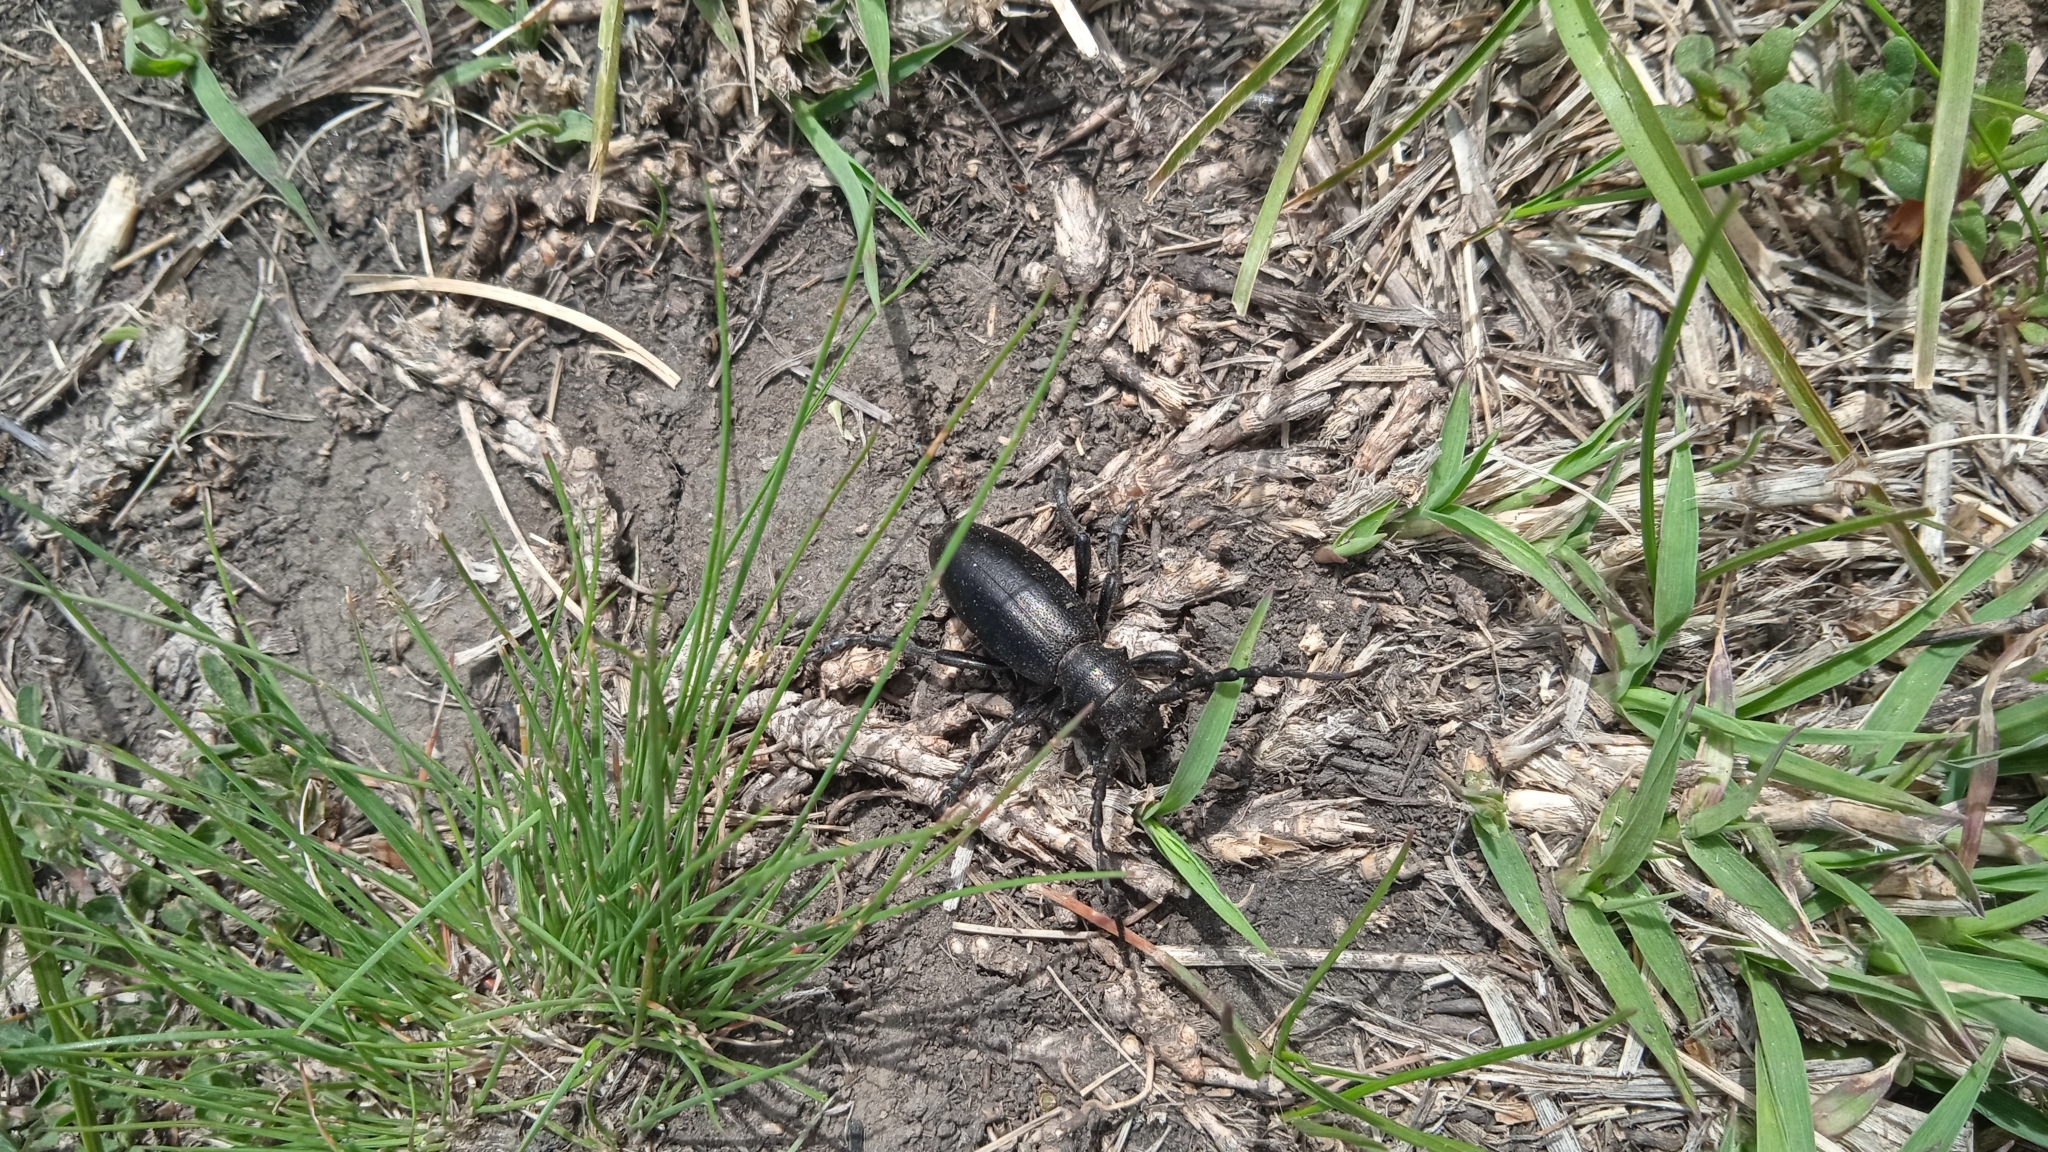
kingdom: Animalia
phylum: Arthropoda
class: Insecta
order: Coleoptera
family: Cerambycidae
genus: Dorcadion
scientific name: Dorcadion aethiops
